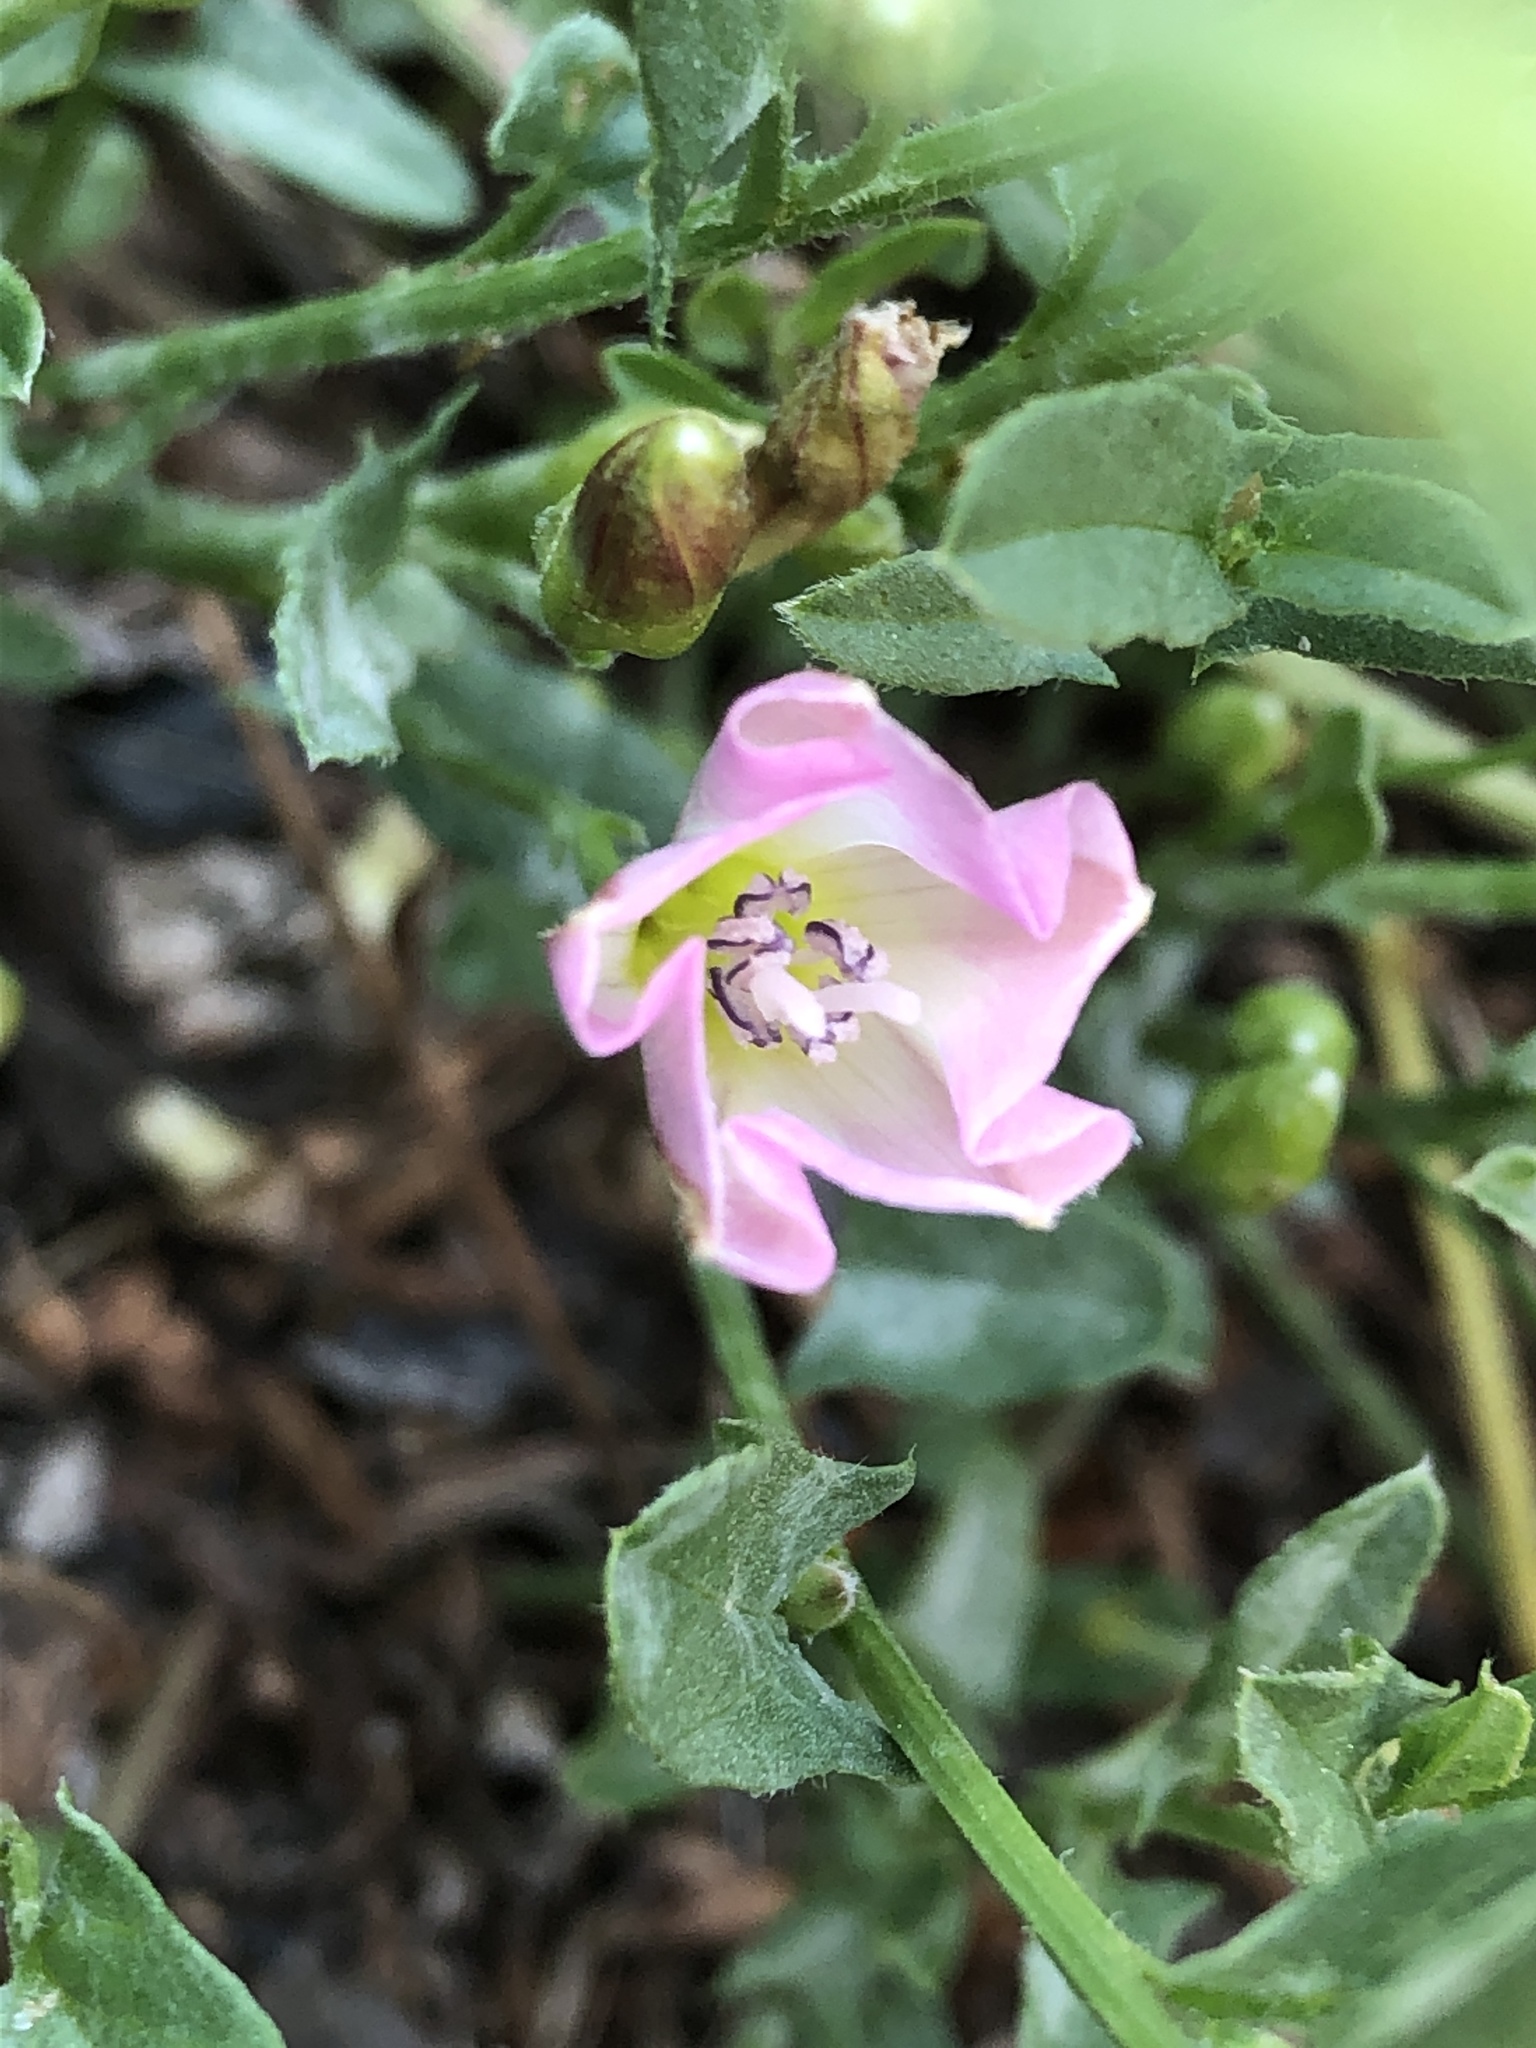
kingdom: Plantae
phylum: Tracheophyta
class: Magnoliopsida
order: Solanales
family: Convolvulaceae
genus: Convolvulus
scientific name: Convolvulus arvensis
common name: Field bindweed
